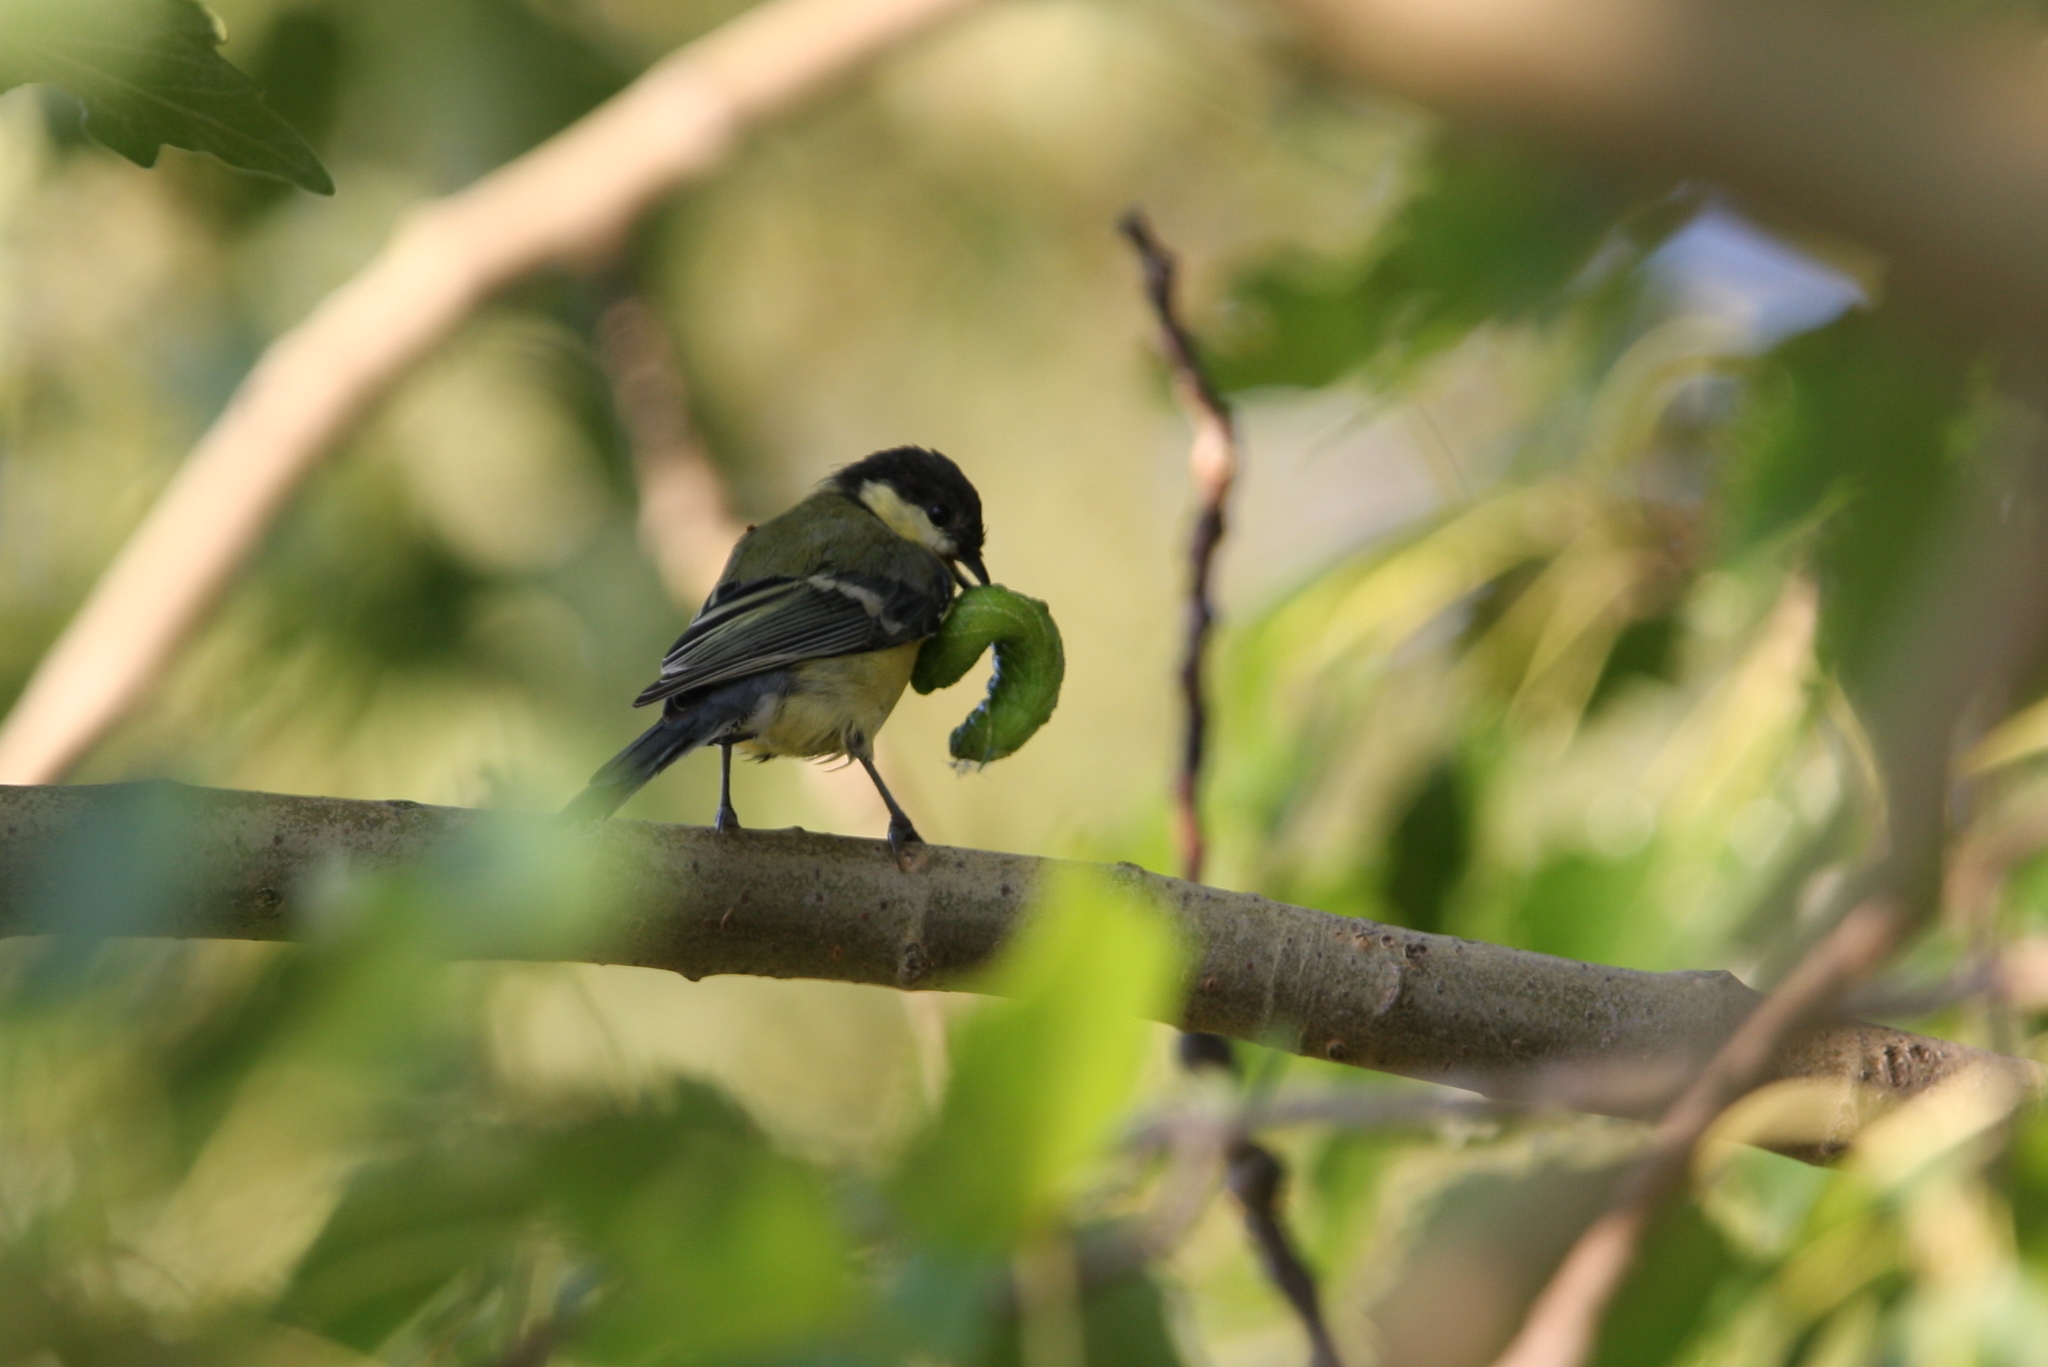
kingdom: Animalia
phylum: Chordata
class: Aves
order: Passeriformes
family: Paridae
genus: Parus
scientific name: Parus major
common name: Great tit
